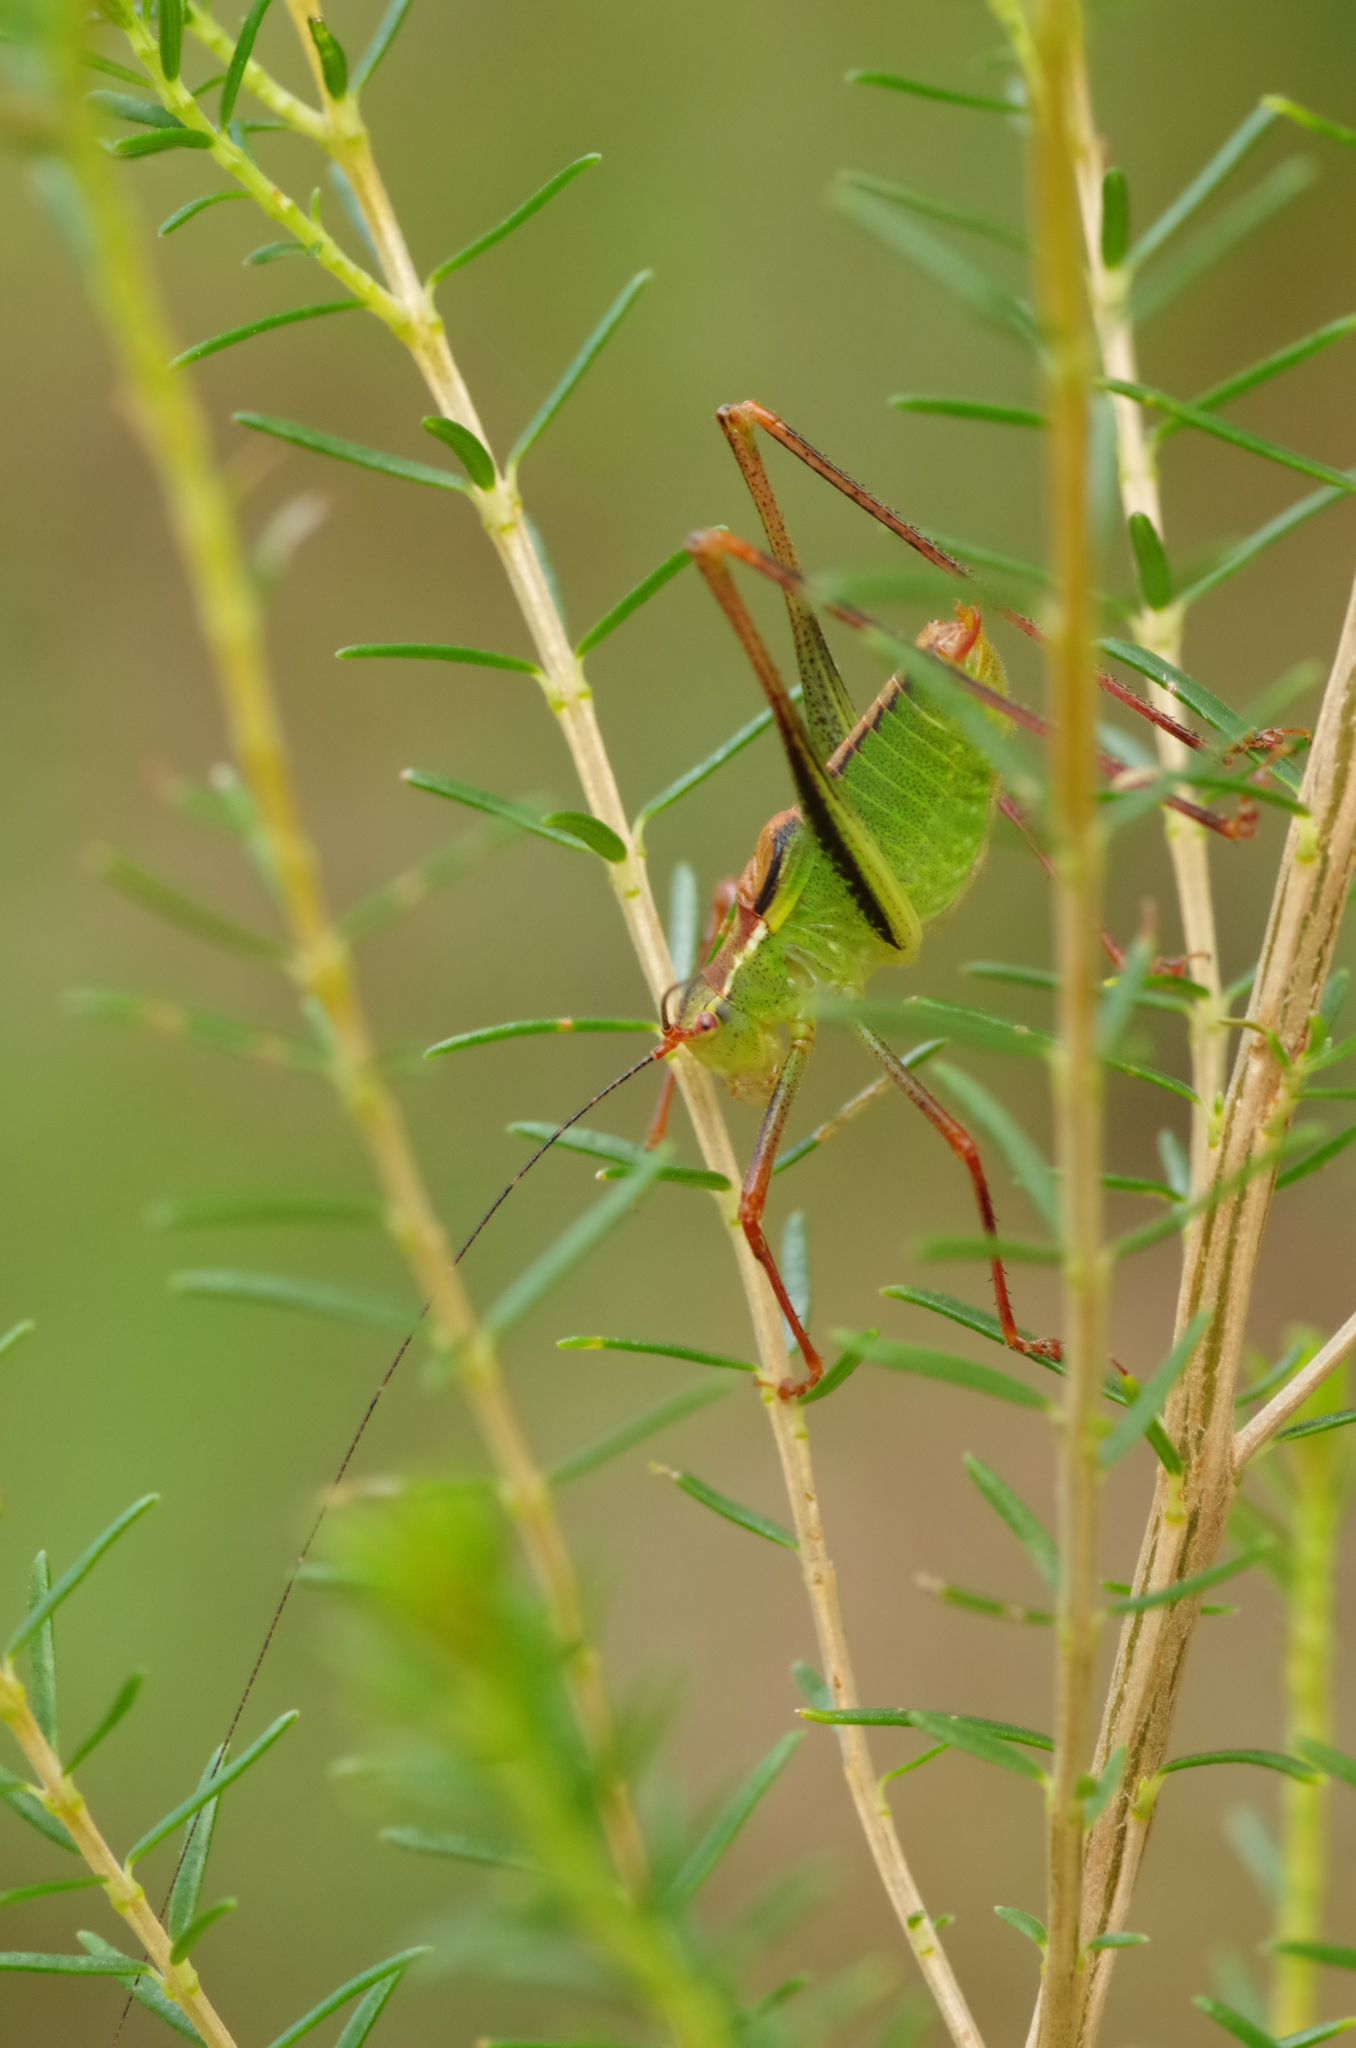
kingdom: Animalia
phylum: Arthropoda
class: Insecta
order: Orthoptera
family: Tettigoniidae
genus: Leptophyes
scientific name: Leptophyes punctatissima
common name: Speckled bush-cricket
